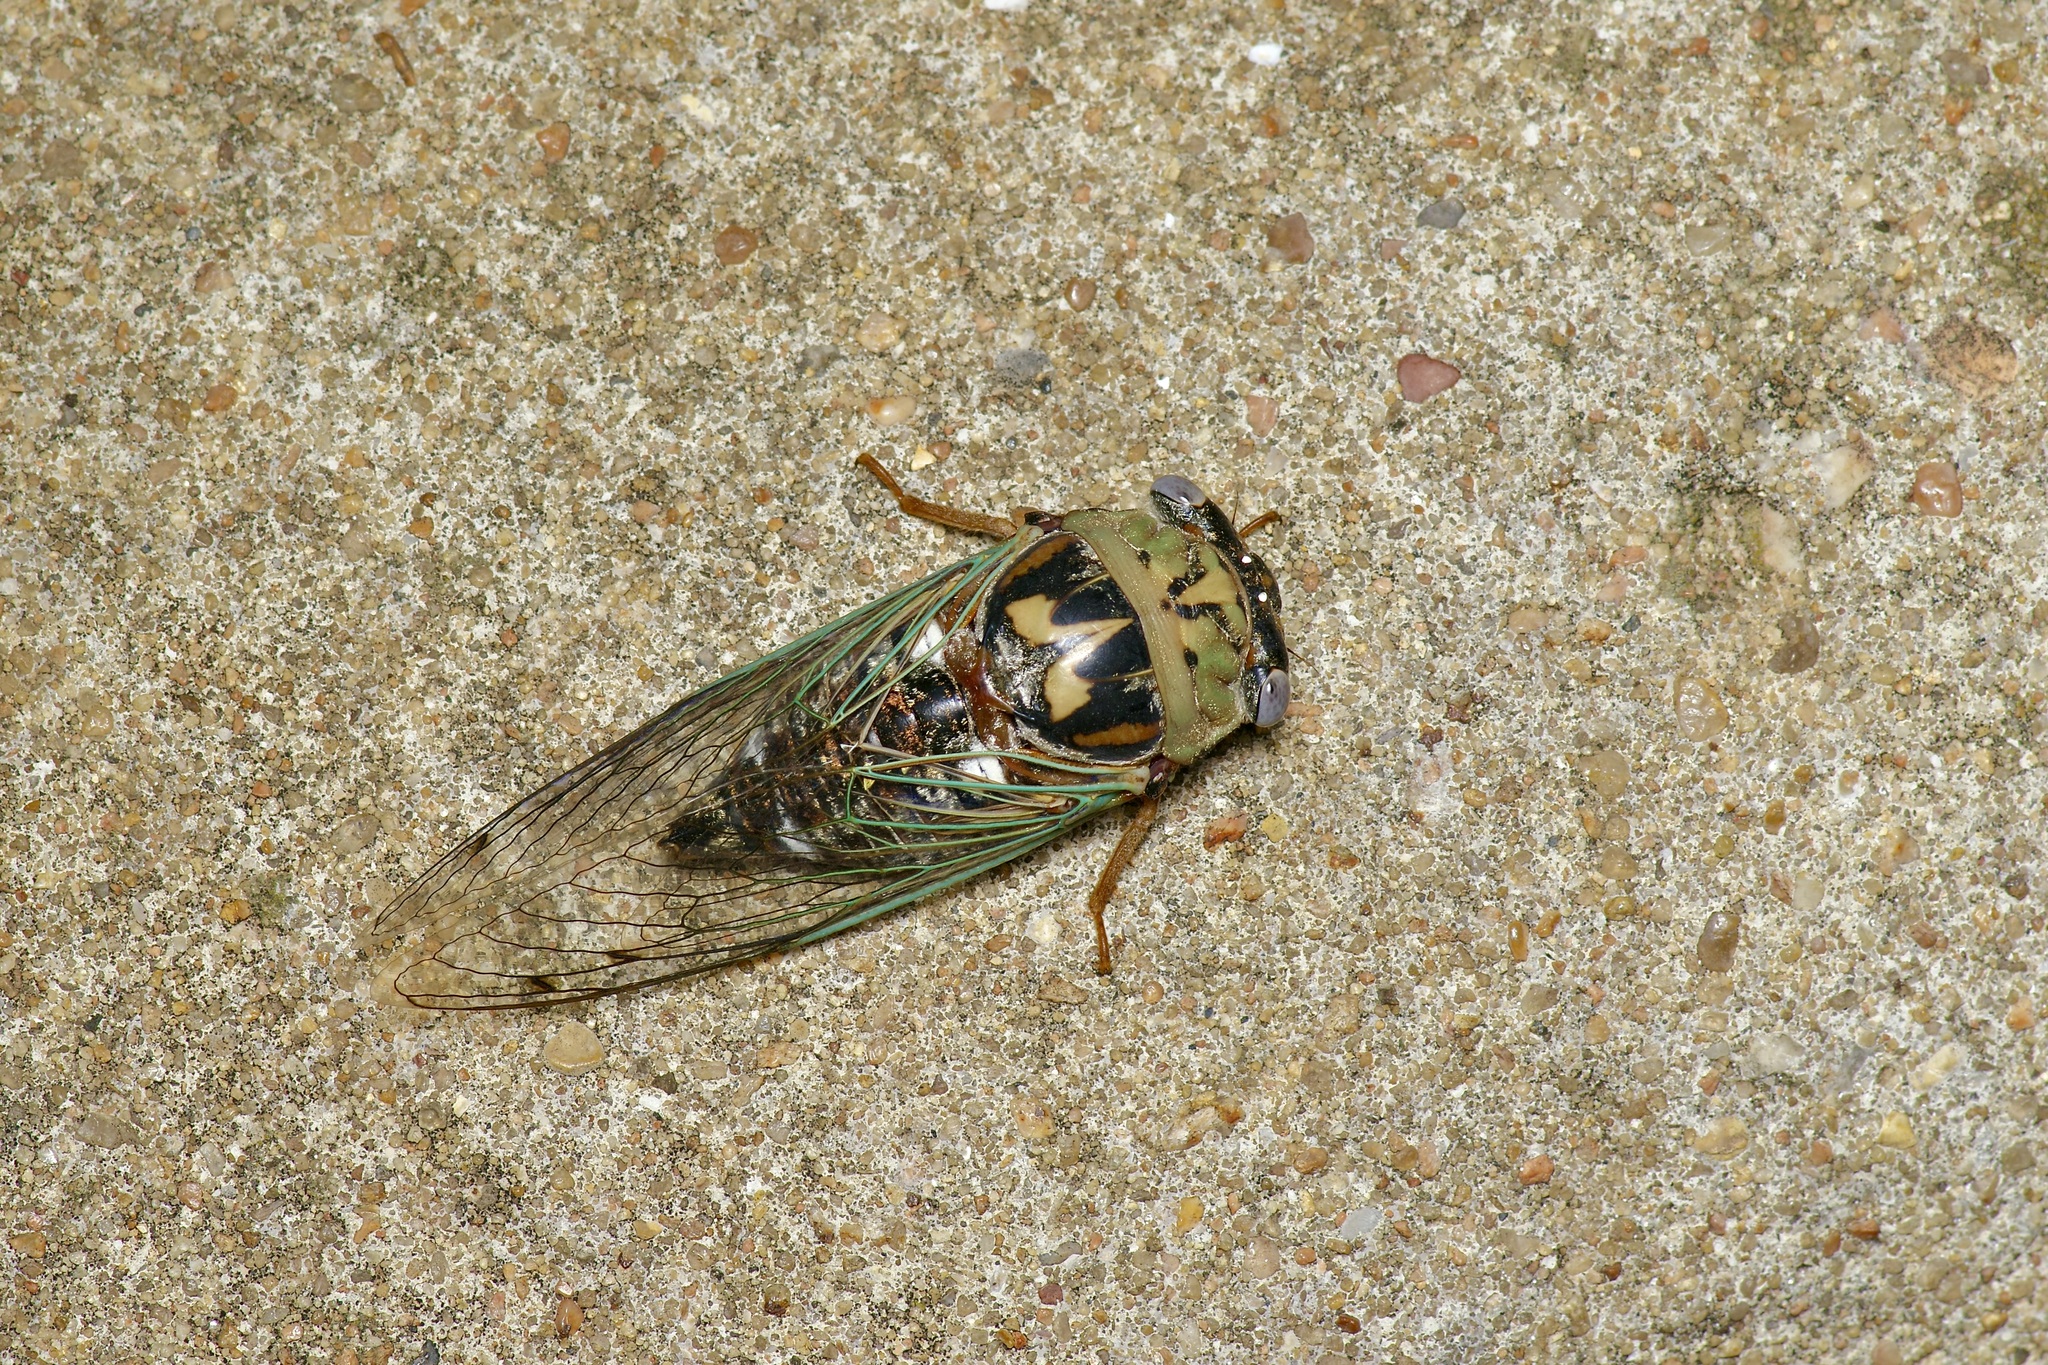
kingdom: Animalia
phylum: Arthropoda
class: Insecta
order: Hemiptera
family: Cicadidae
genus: Megatibicen
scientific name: Megatibicen resh
